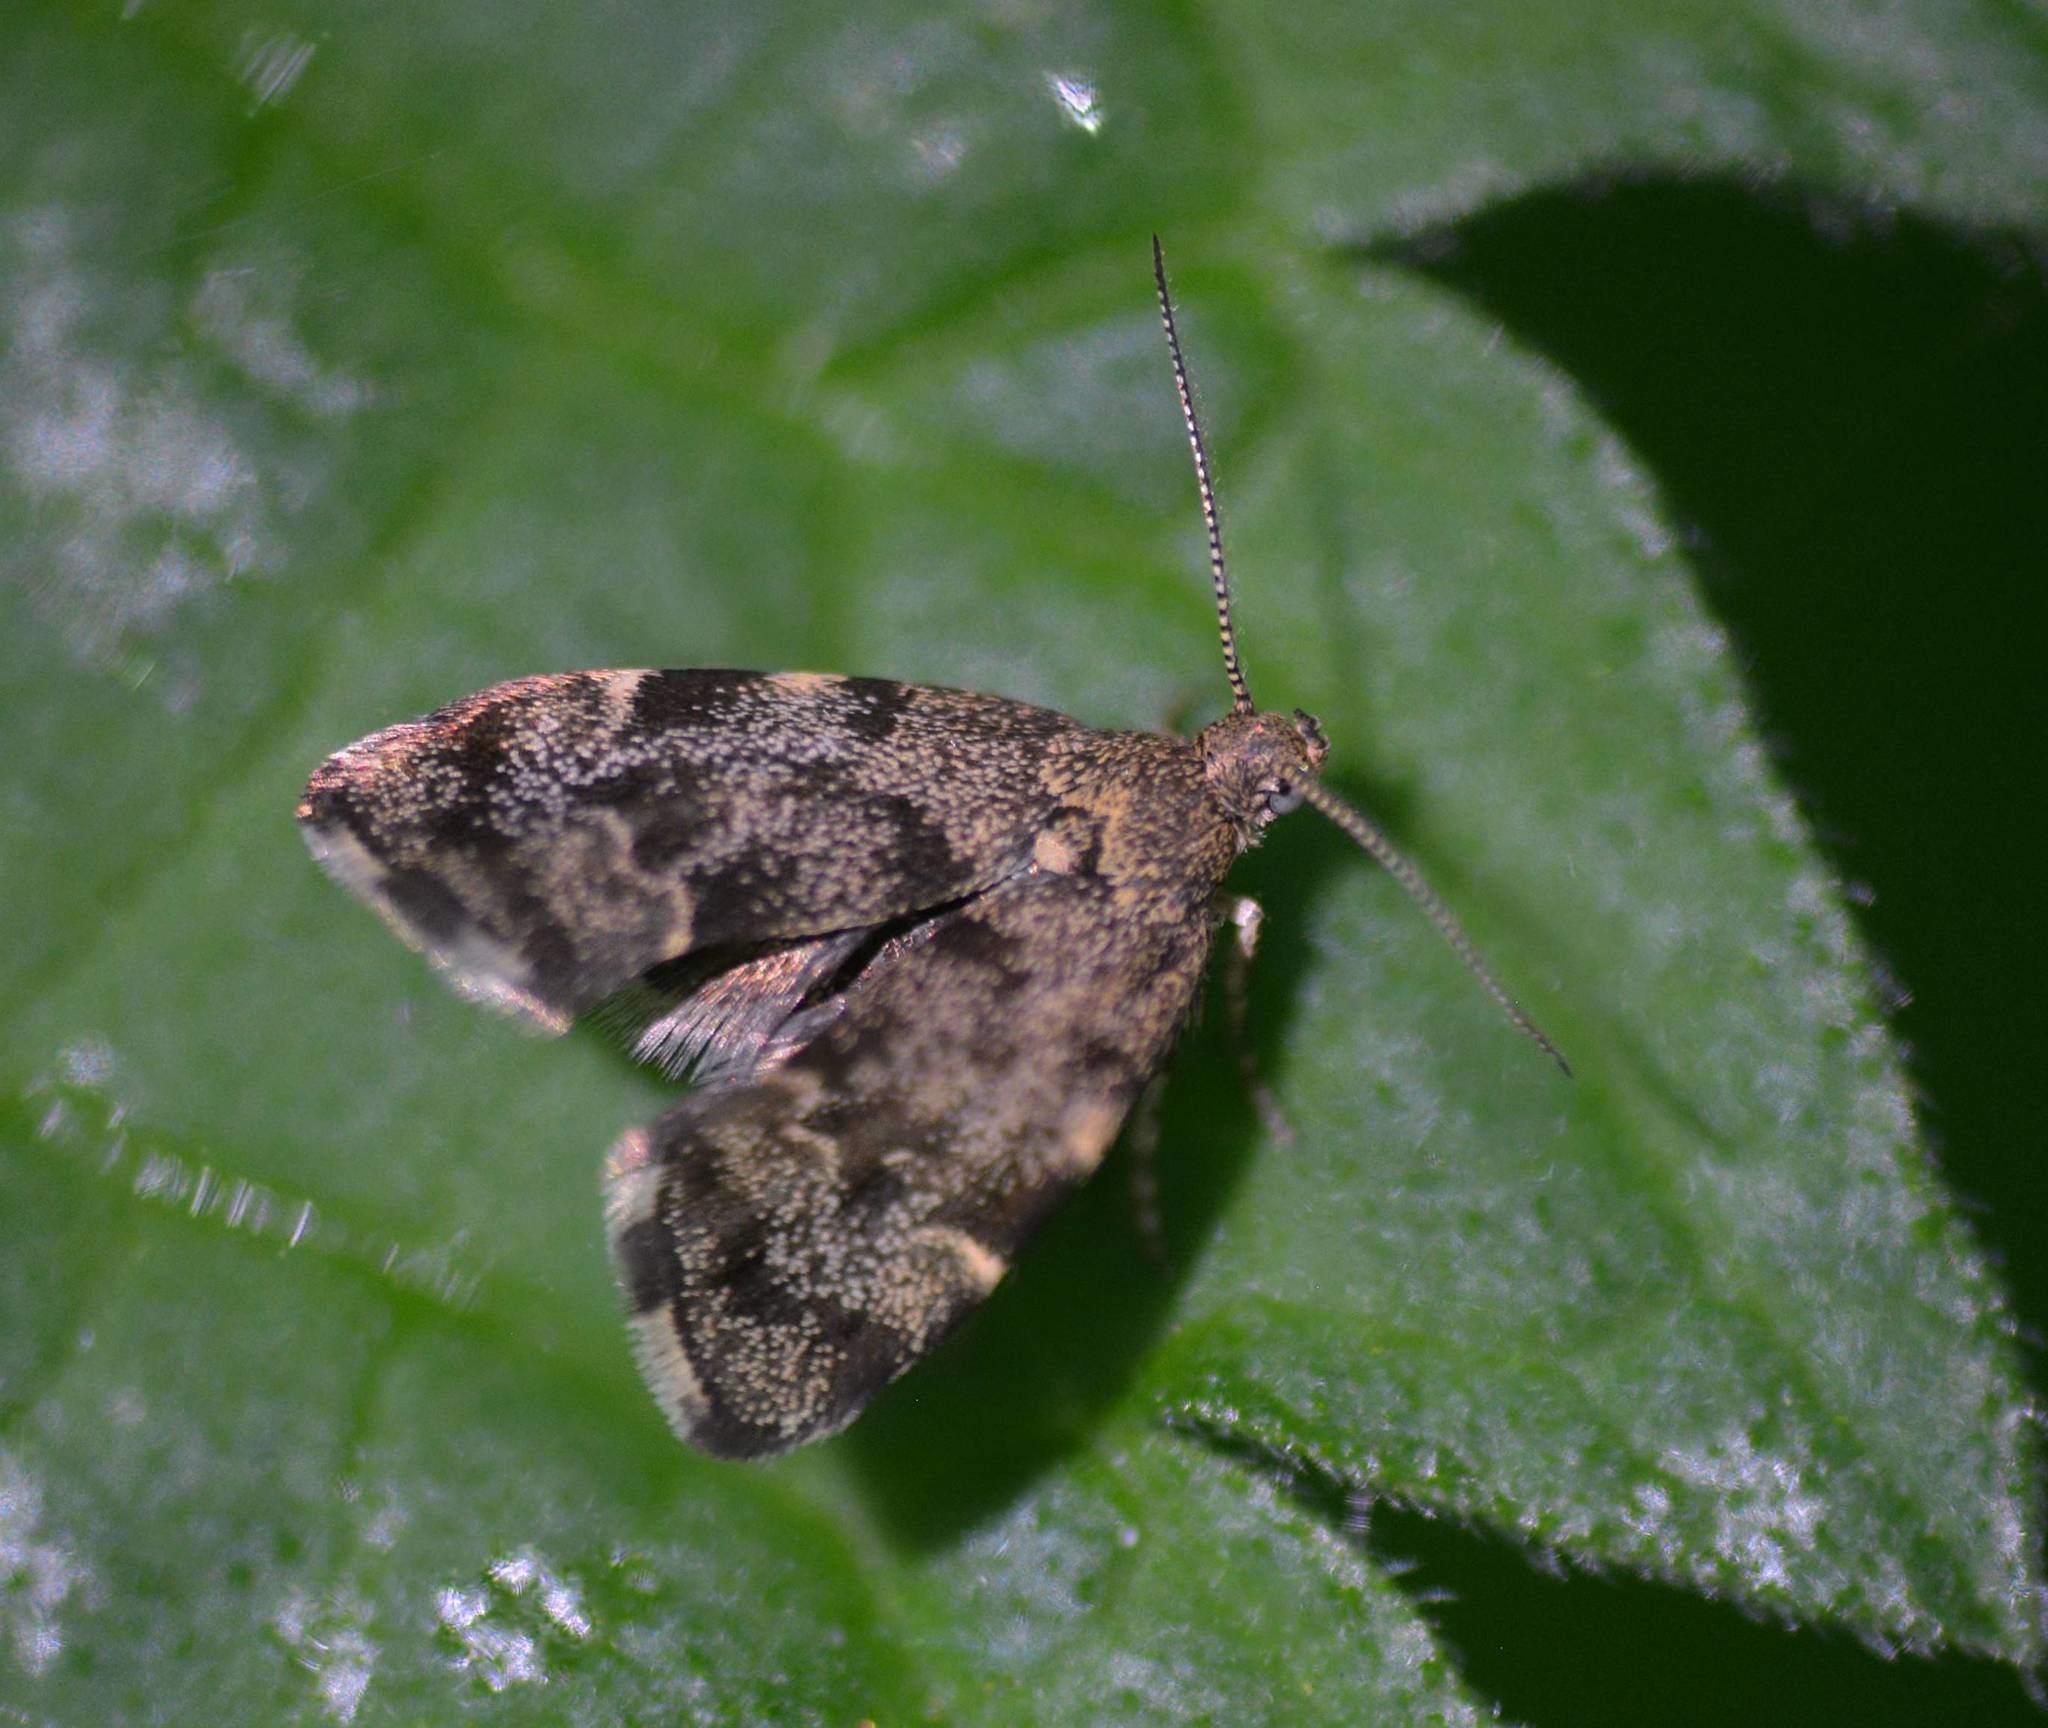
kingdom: Animalia
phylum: Arthropoda
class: Insecta
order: Lepidoptera
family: Choreutidae
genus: Anthophila
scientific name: Anthophila fabriciana
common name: Nettle-tap
